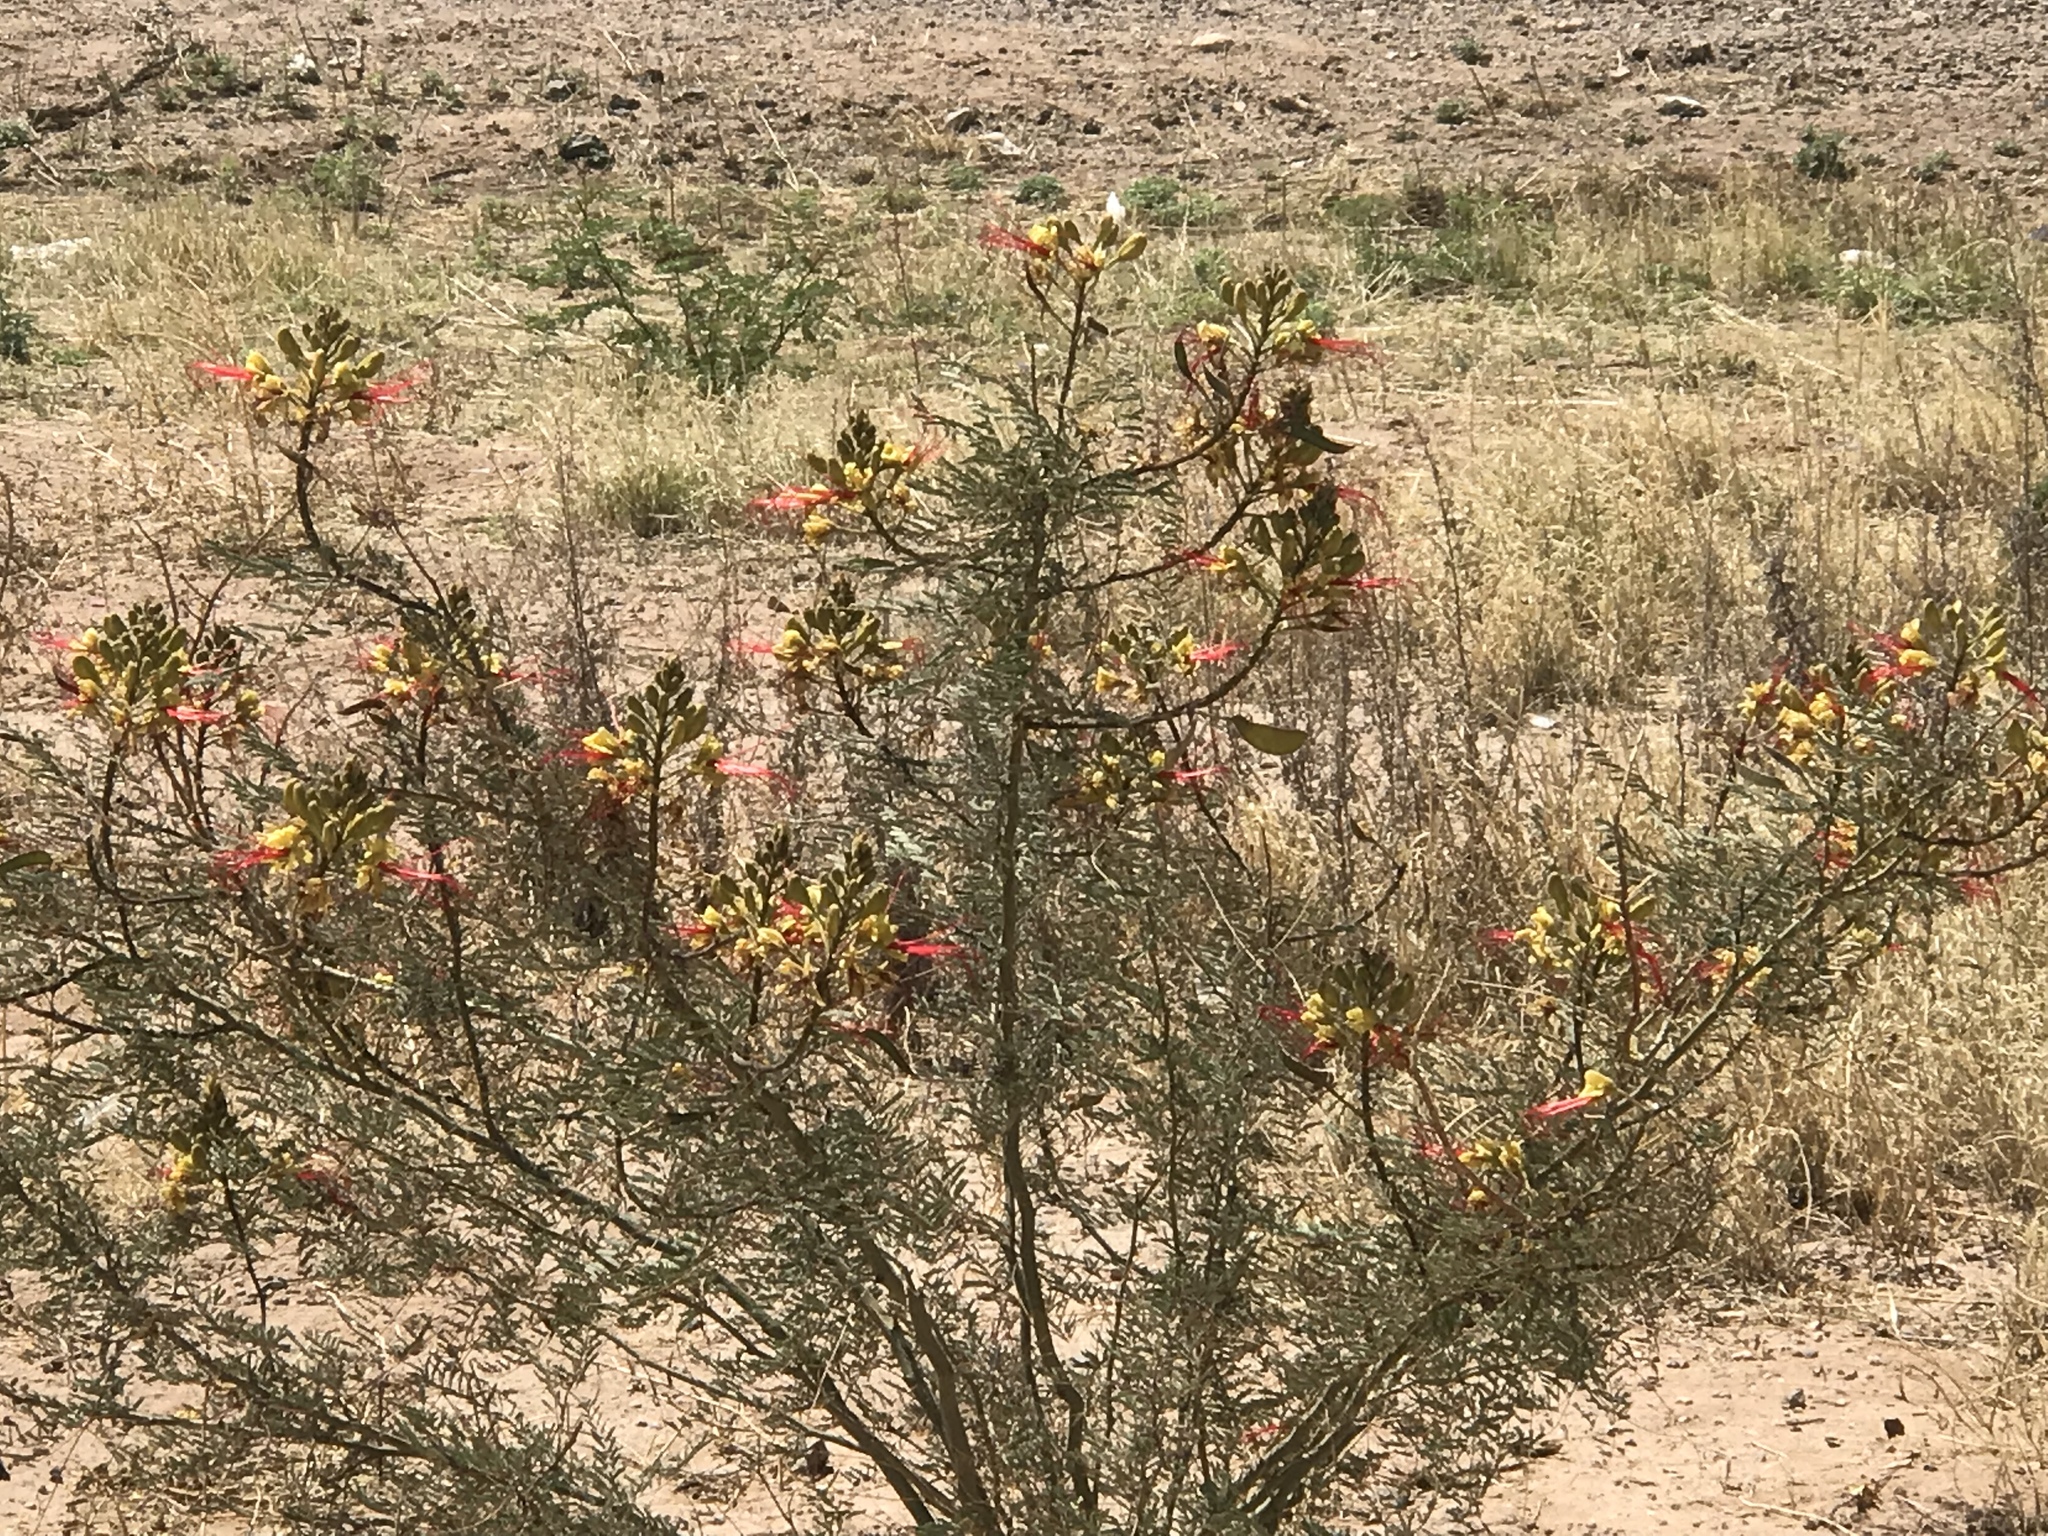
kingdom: Plantae
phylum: Tracheophyta
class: Magnoliopsida
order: Fabales
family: Fabaceae
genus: Erythrostemon
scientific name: Erythrostemon gilliesii
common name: Bird-of-paradise shrub
